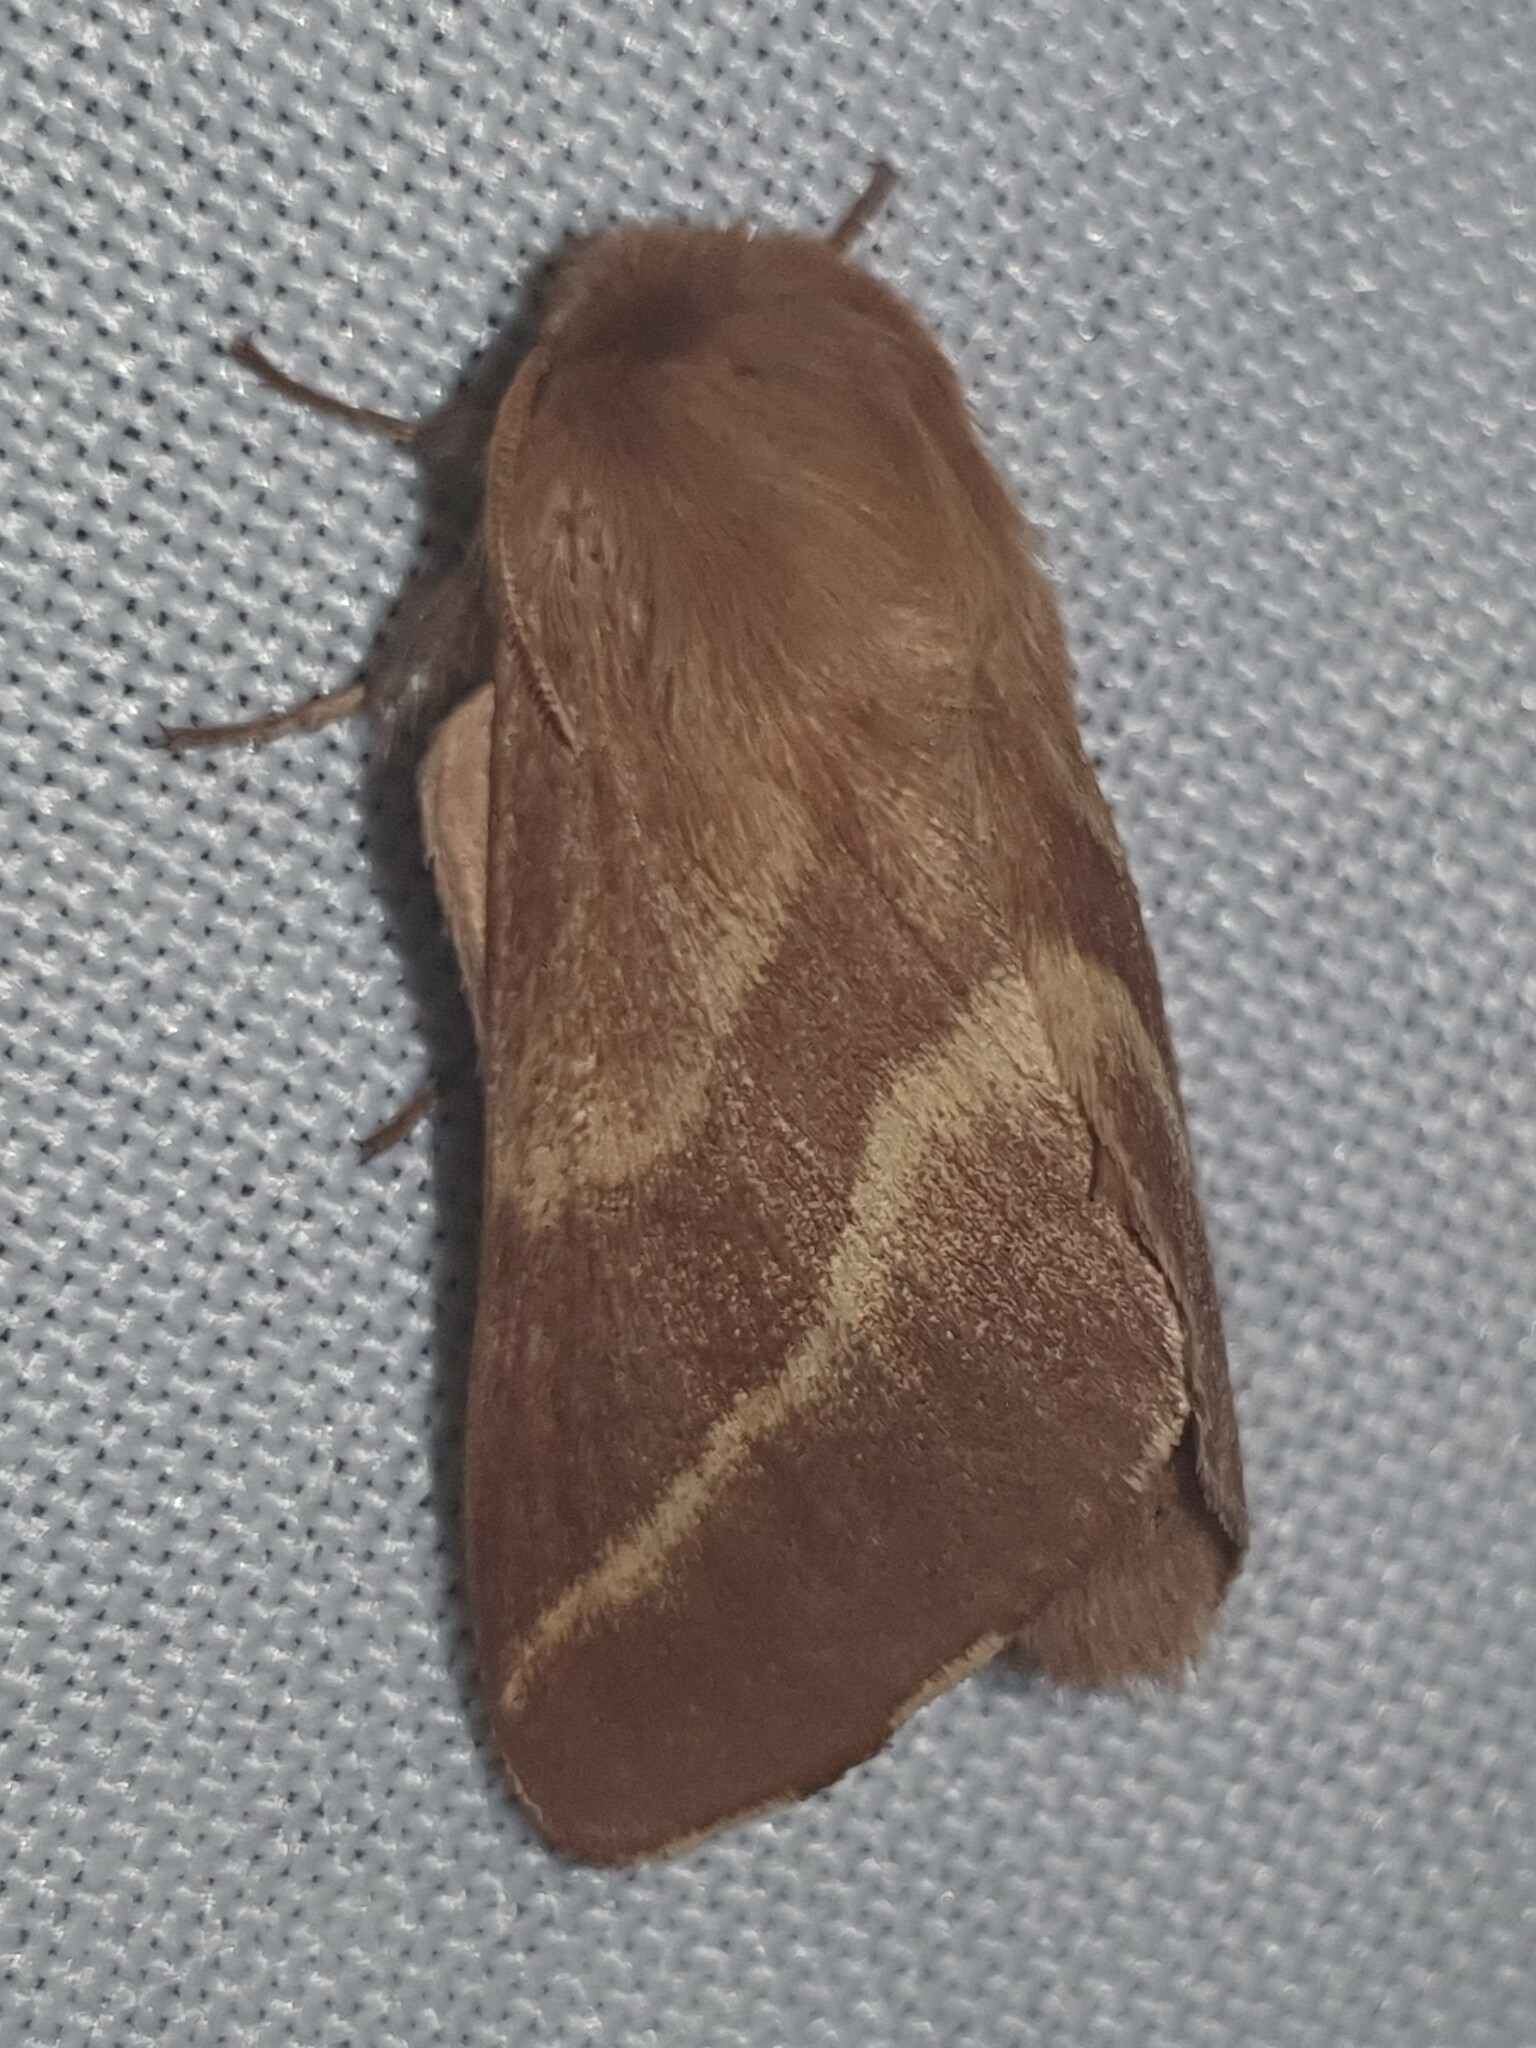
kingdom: Animalia
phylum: Arthropoda
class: Insecta
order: Lepidoptera
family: Lasiocampidae
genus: Malacosoma
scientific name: Malacosoma neustria
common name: The lackey
